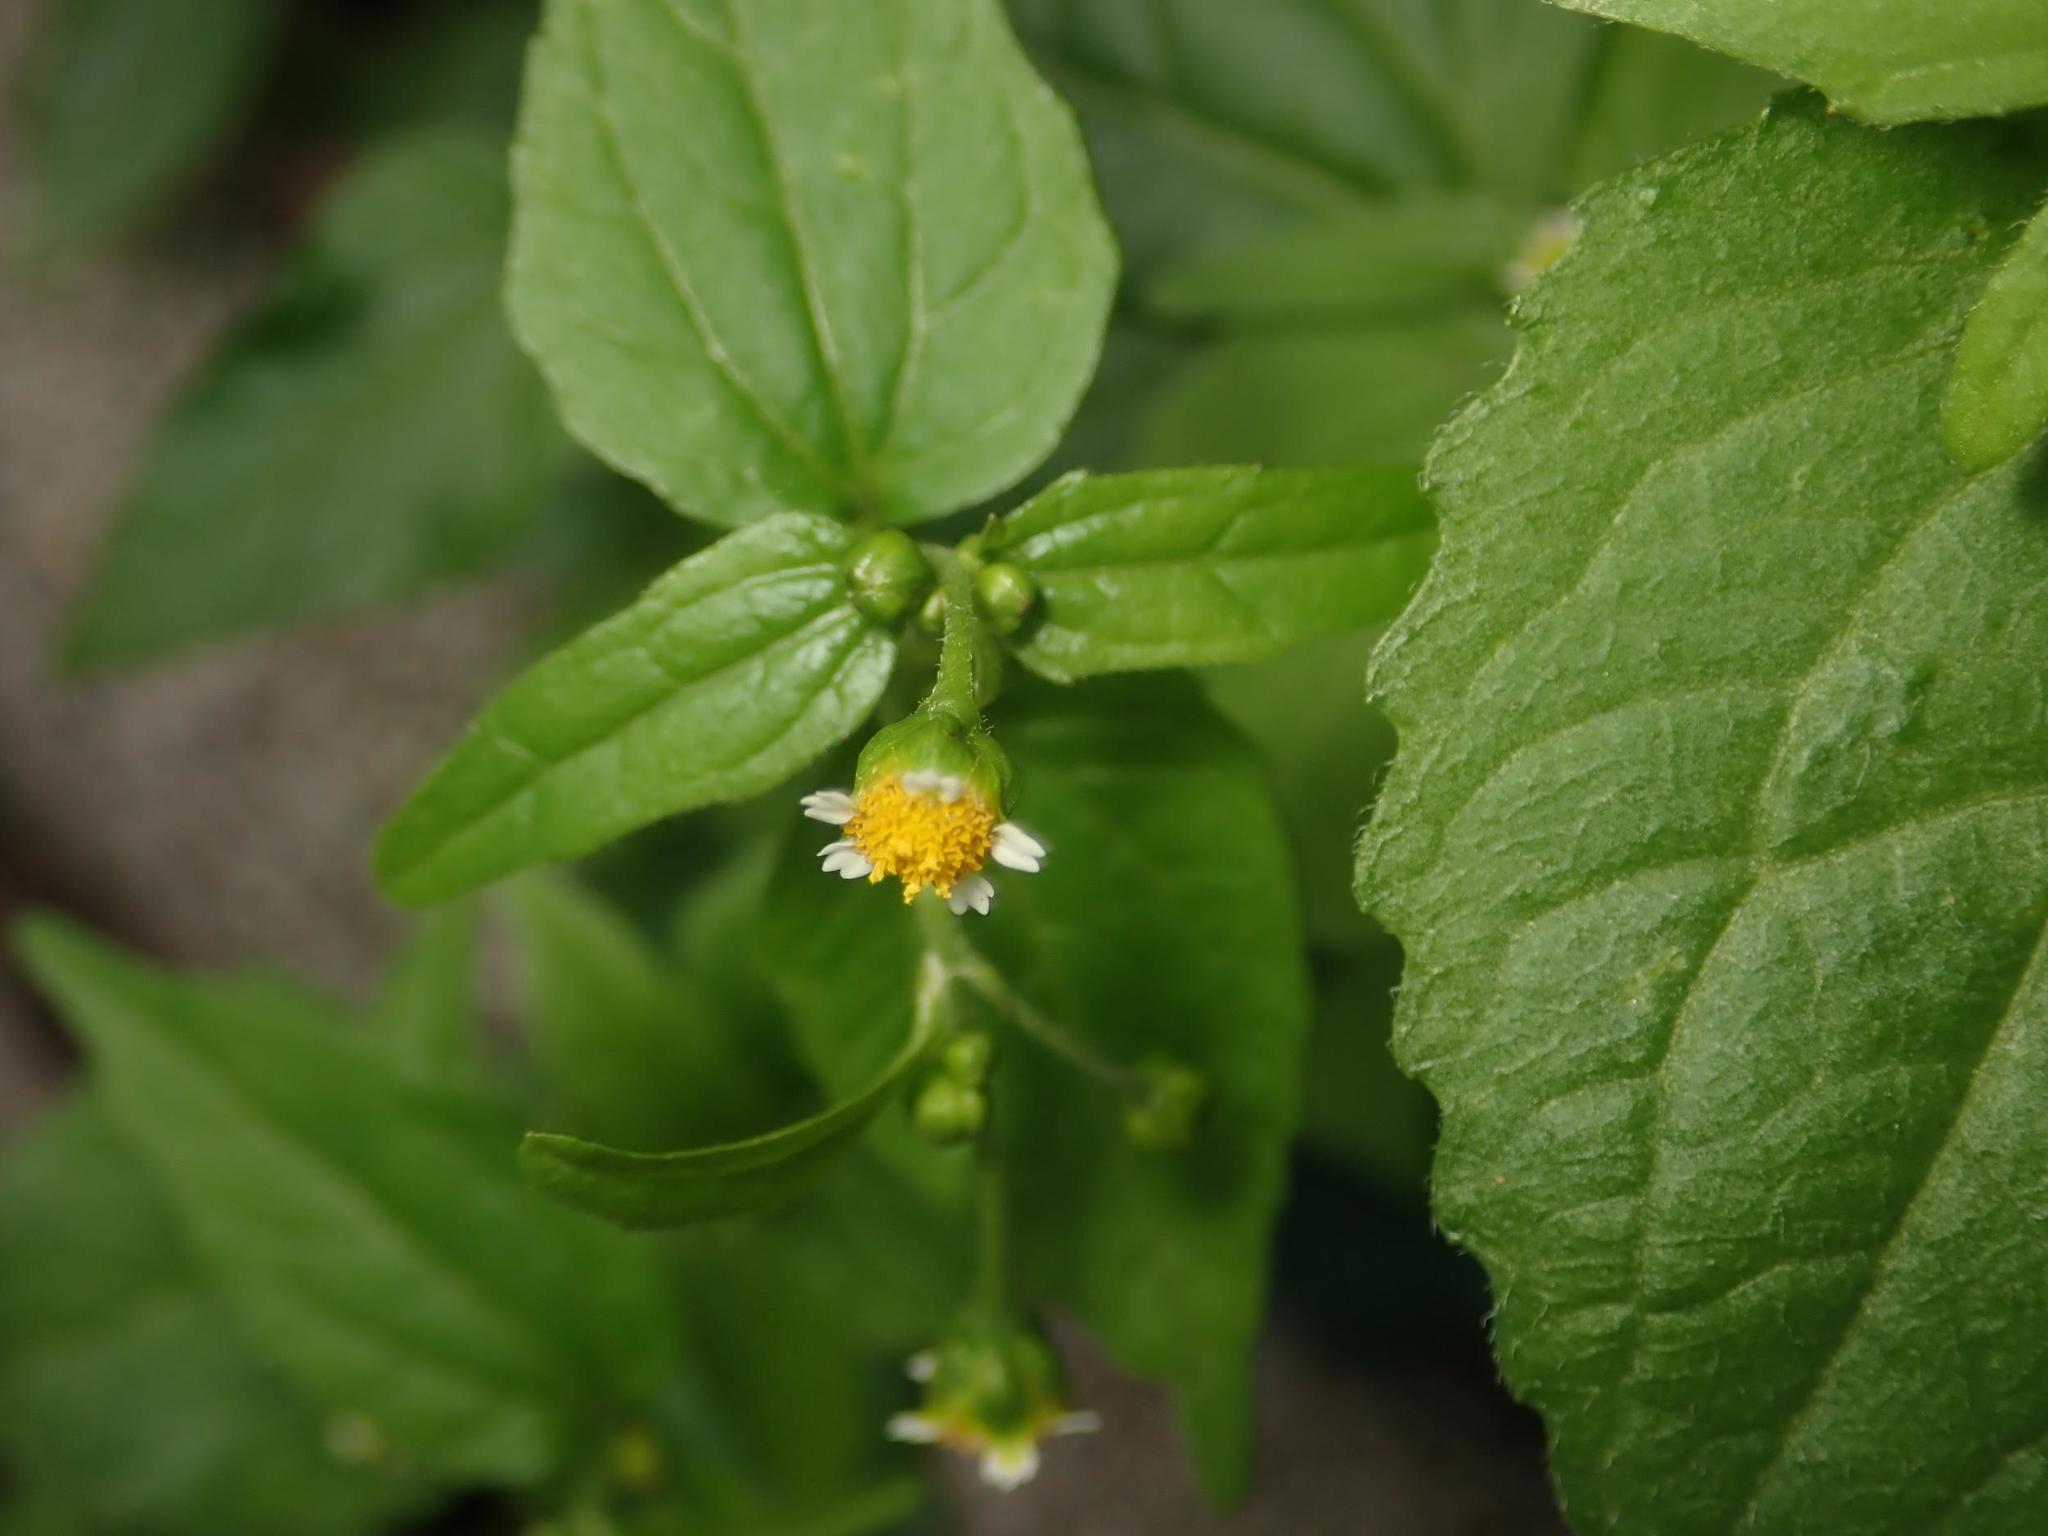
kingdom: Plantae
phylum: Tracheophyta
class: Magnoliopsida
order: Asterales
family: Asteraceae
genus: Galinsoga
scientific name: Galinsoga parviflora
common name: Gallant soldier
